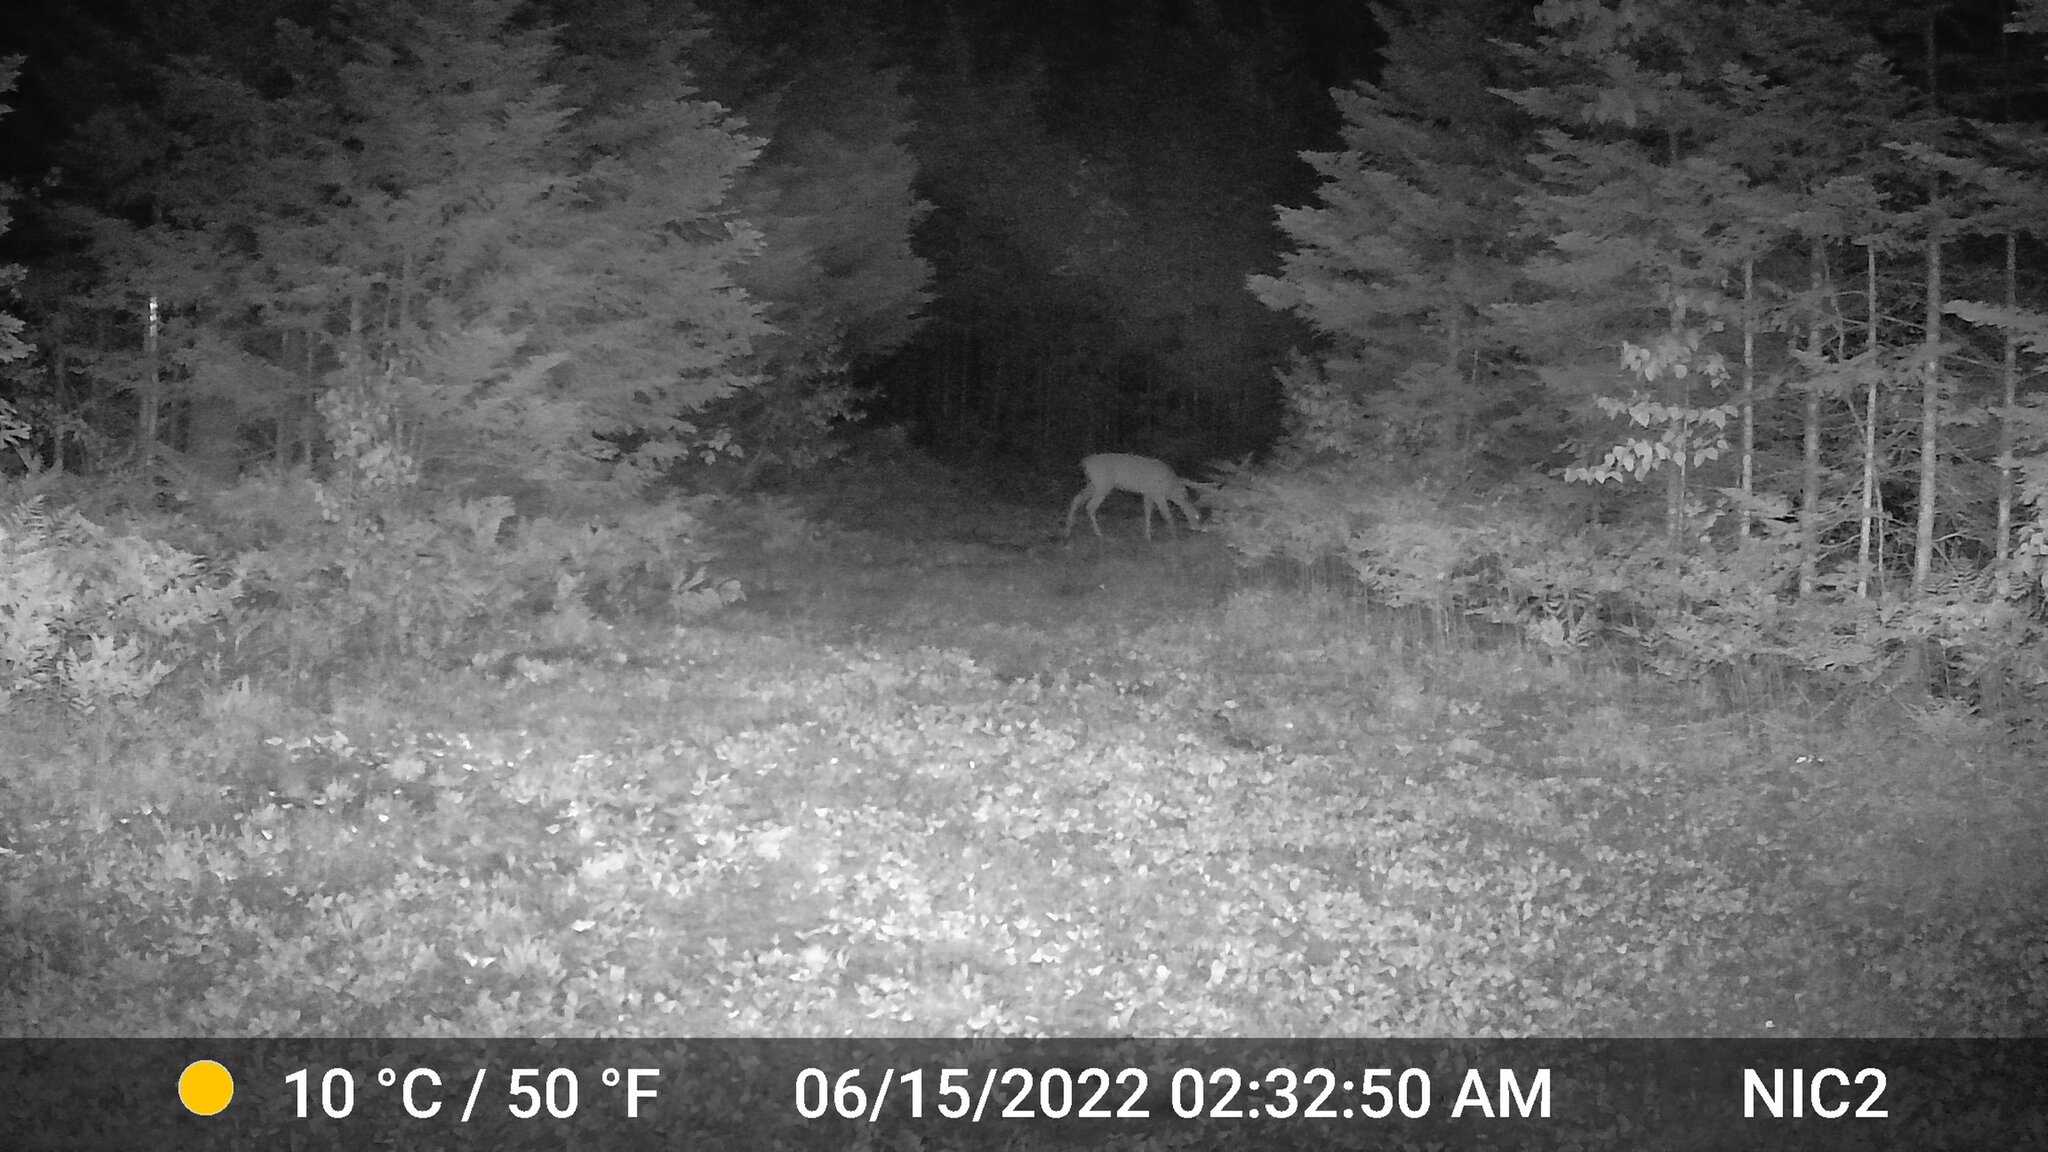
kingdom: Animalia
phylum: Chordata
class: Mammalia
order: Artiodactyla
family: Cervidae
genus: Odocoileus
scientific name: Odocoileus virginianus
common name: White-tailed deer
